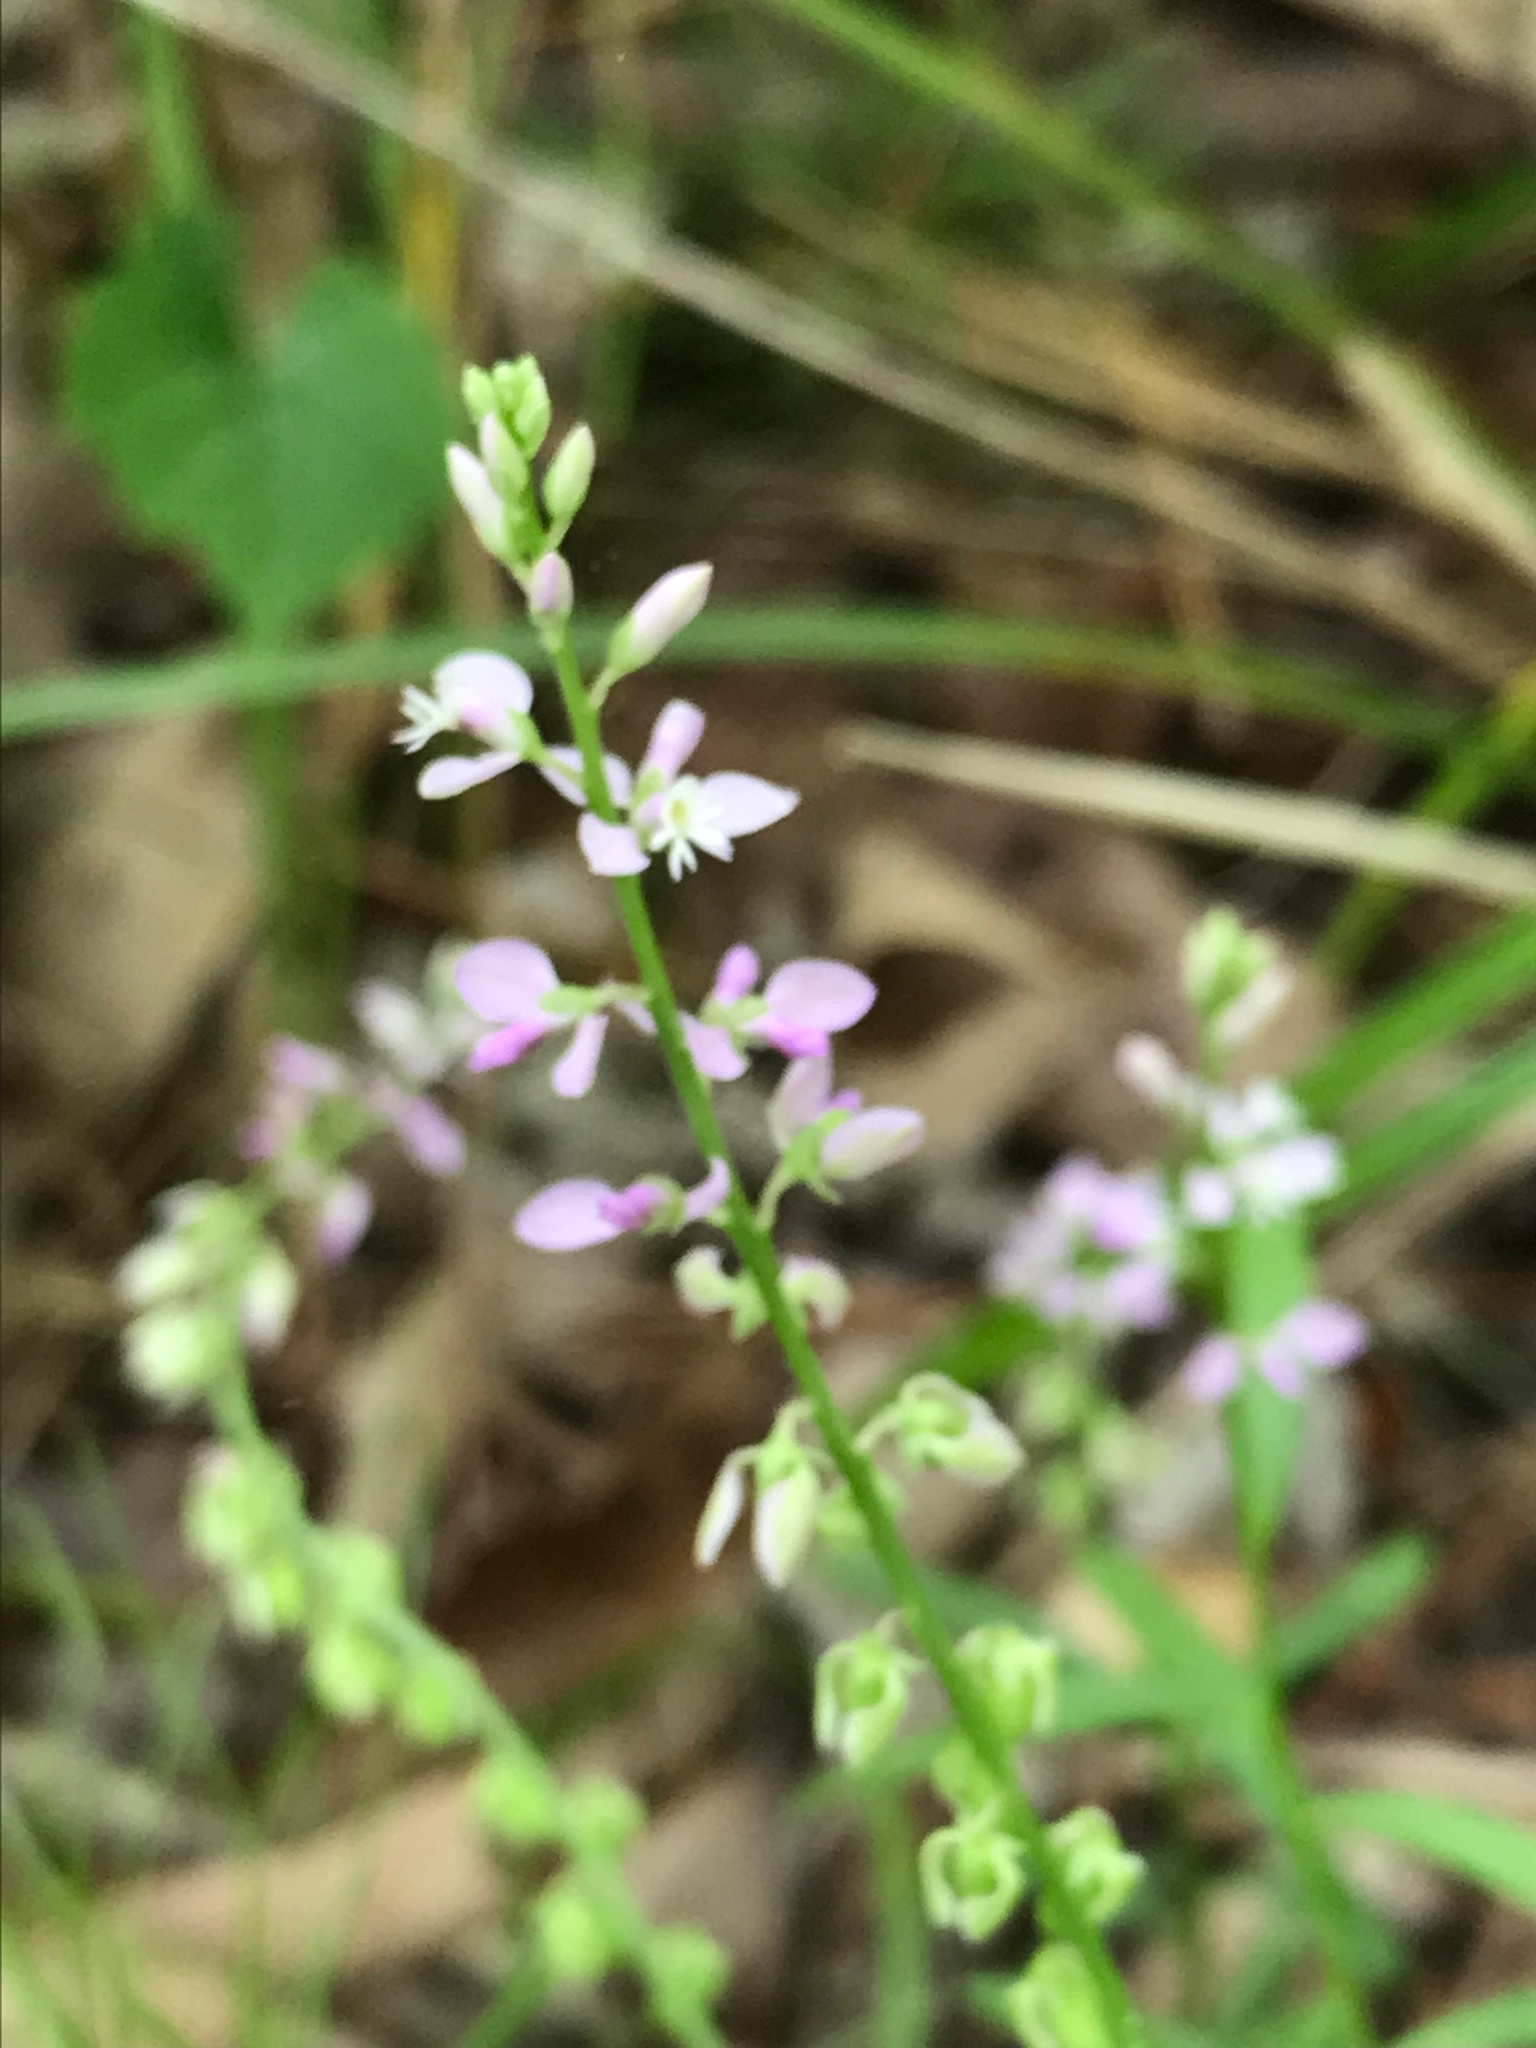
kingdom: Plantae
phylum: Tracheophyta
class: Magnoliopsida
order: Fabales
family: Polygalaceae
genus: Polygala
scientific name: Polygala polygama
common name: Bitter milkwort
